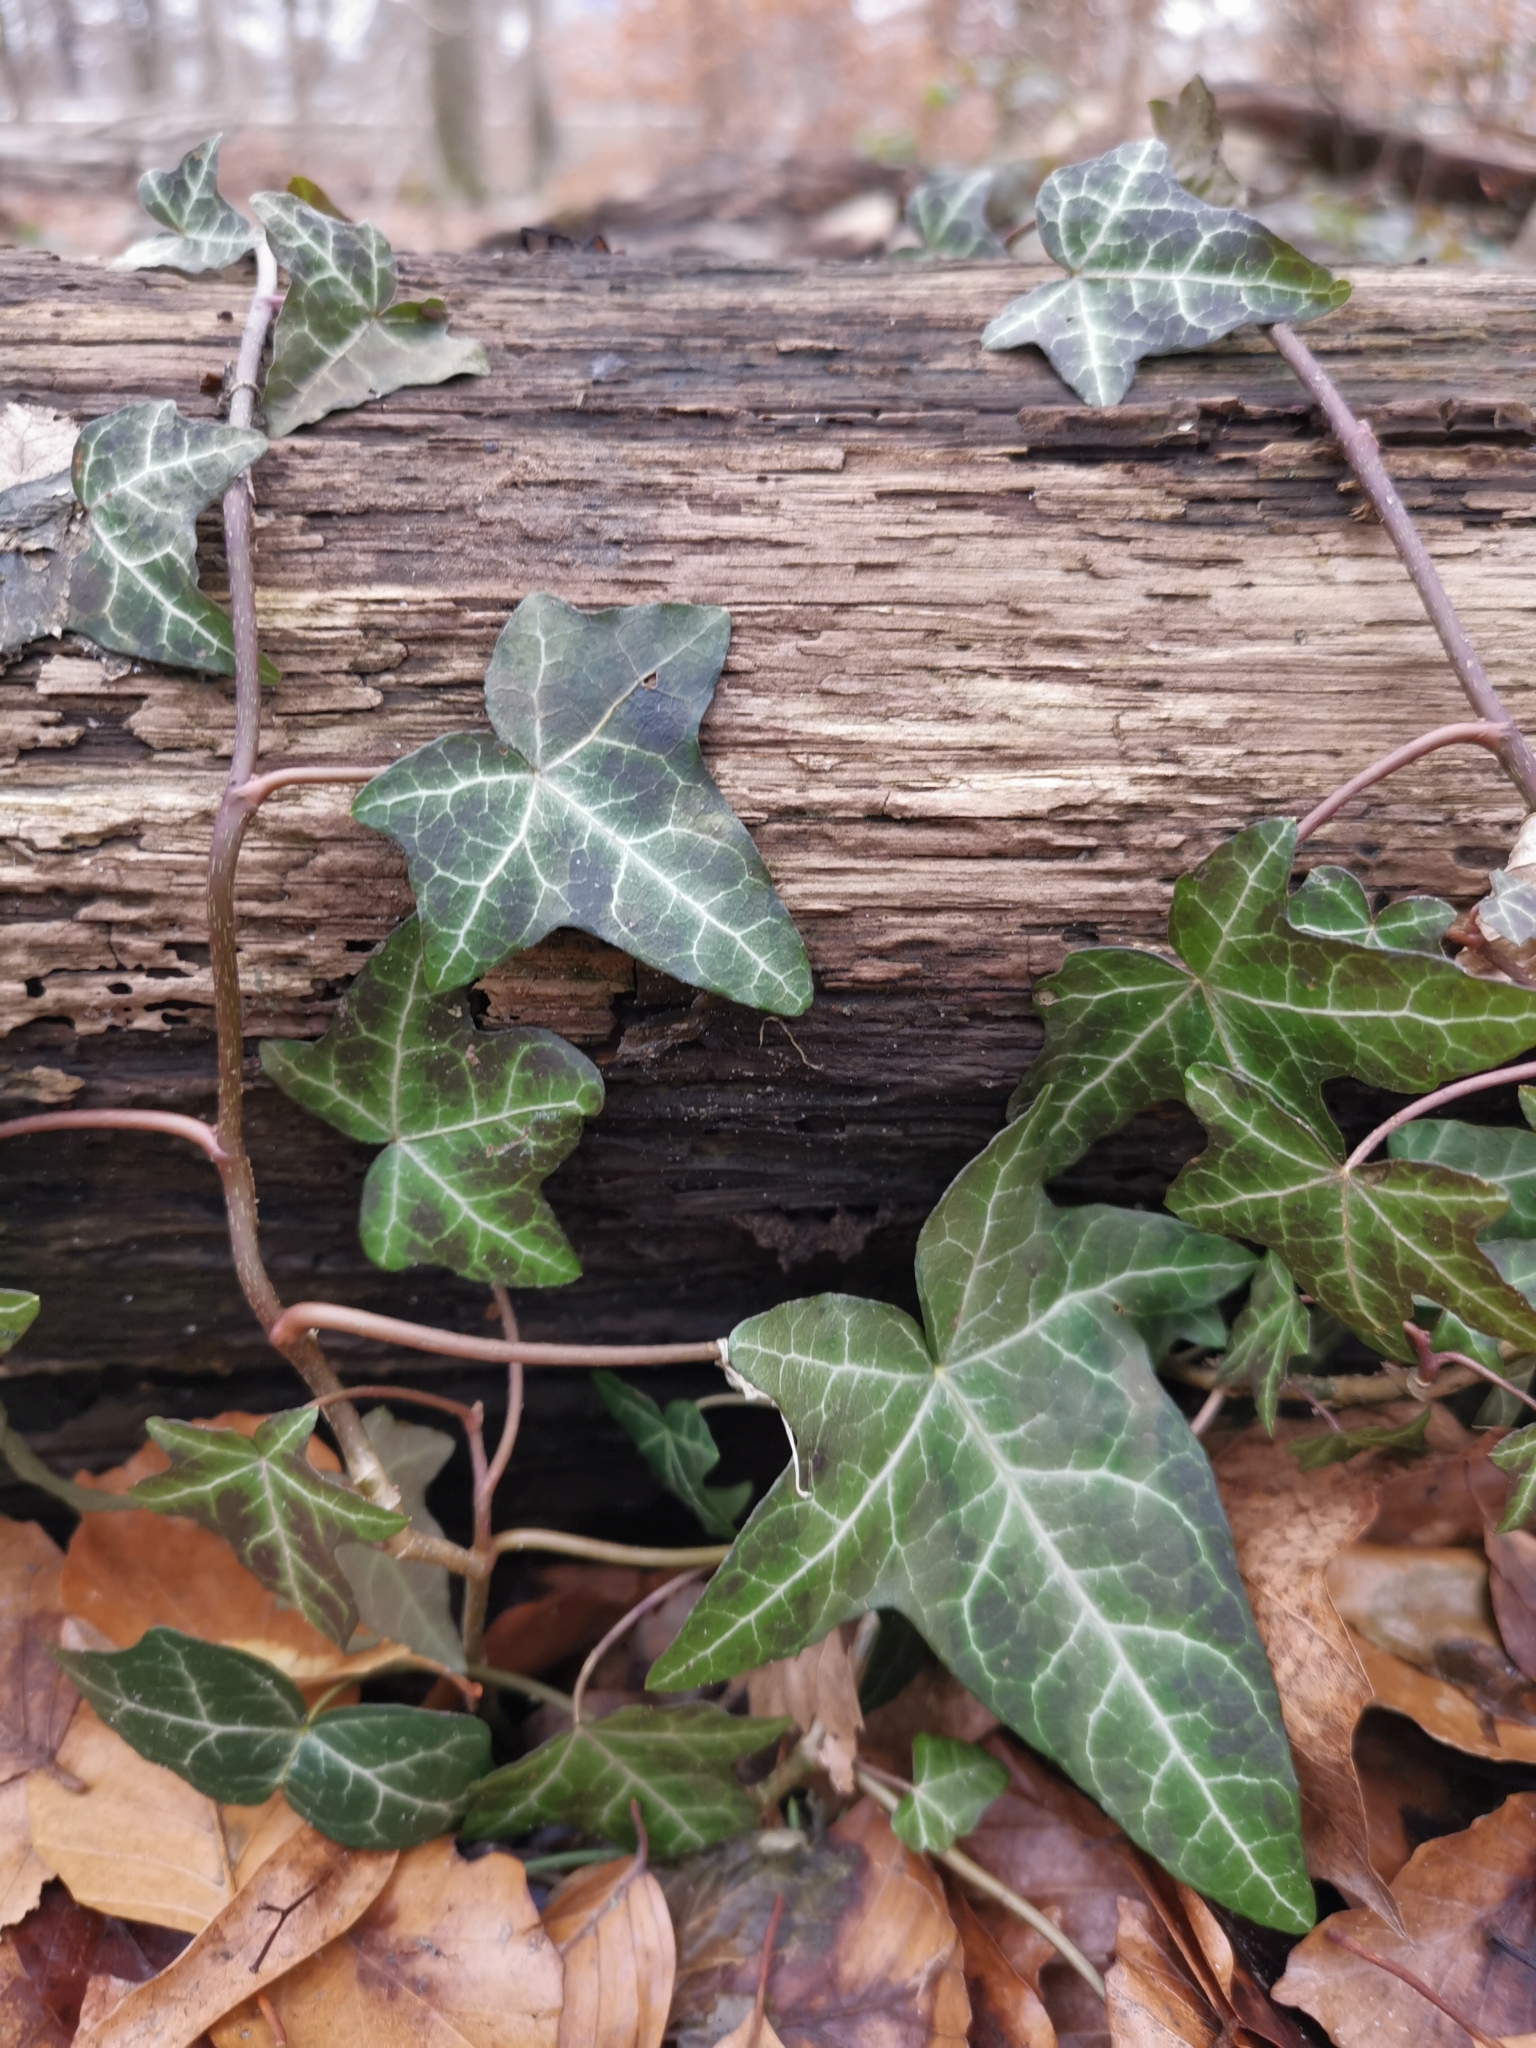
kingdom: Plantae
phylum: Tracheophyta
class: Magnoliopsida
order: Apiales
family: Araliaceae
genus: Hedera
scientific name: Hedera helix
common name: Ivy
